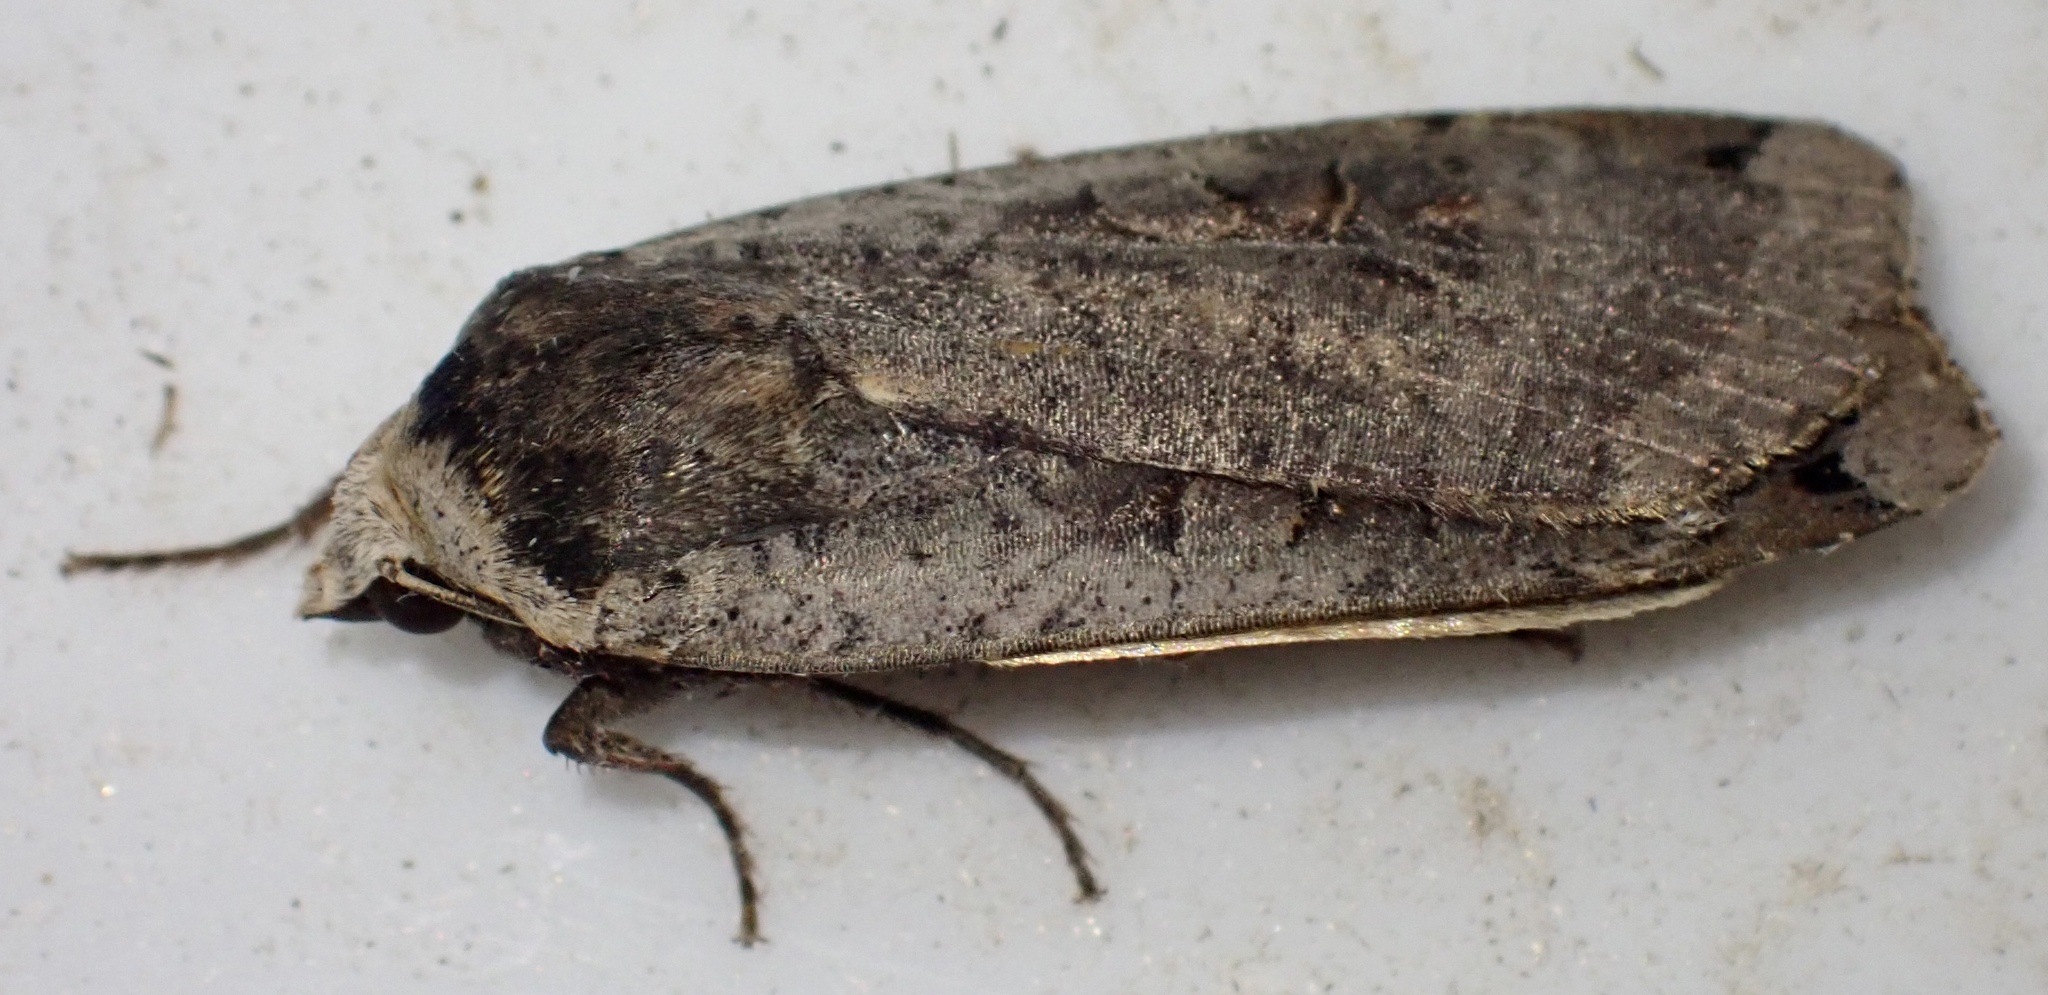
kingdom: Animalia
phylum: Arthropoda
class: Insecta
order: Lepidoptera
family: Noctuidae
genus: Noctua
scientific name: Noctua pronuba
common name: Large yellow underwing
